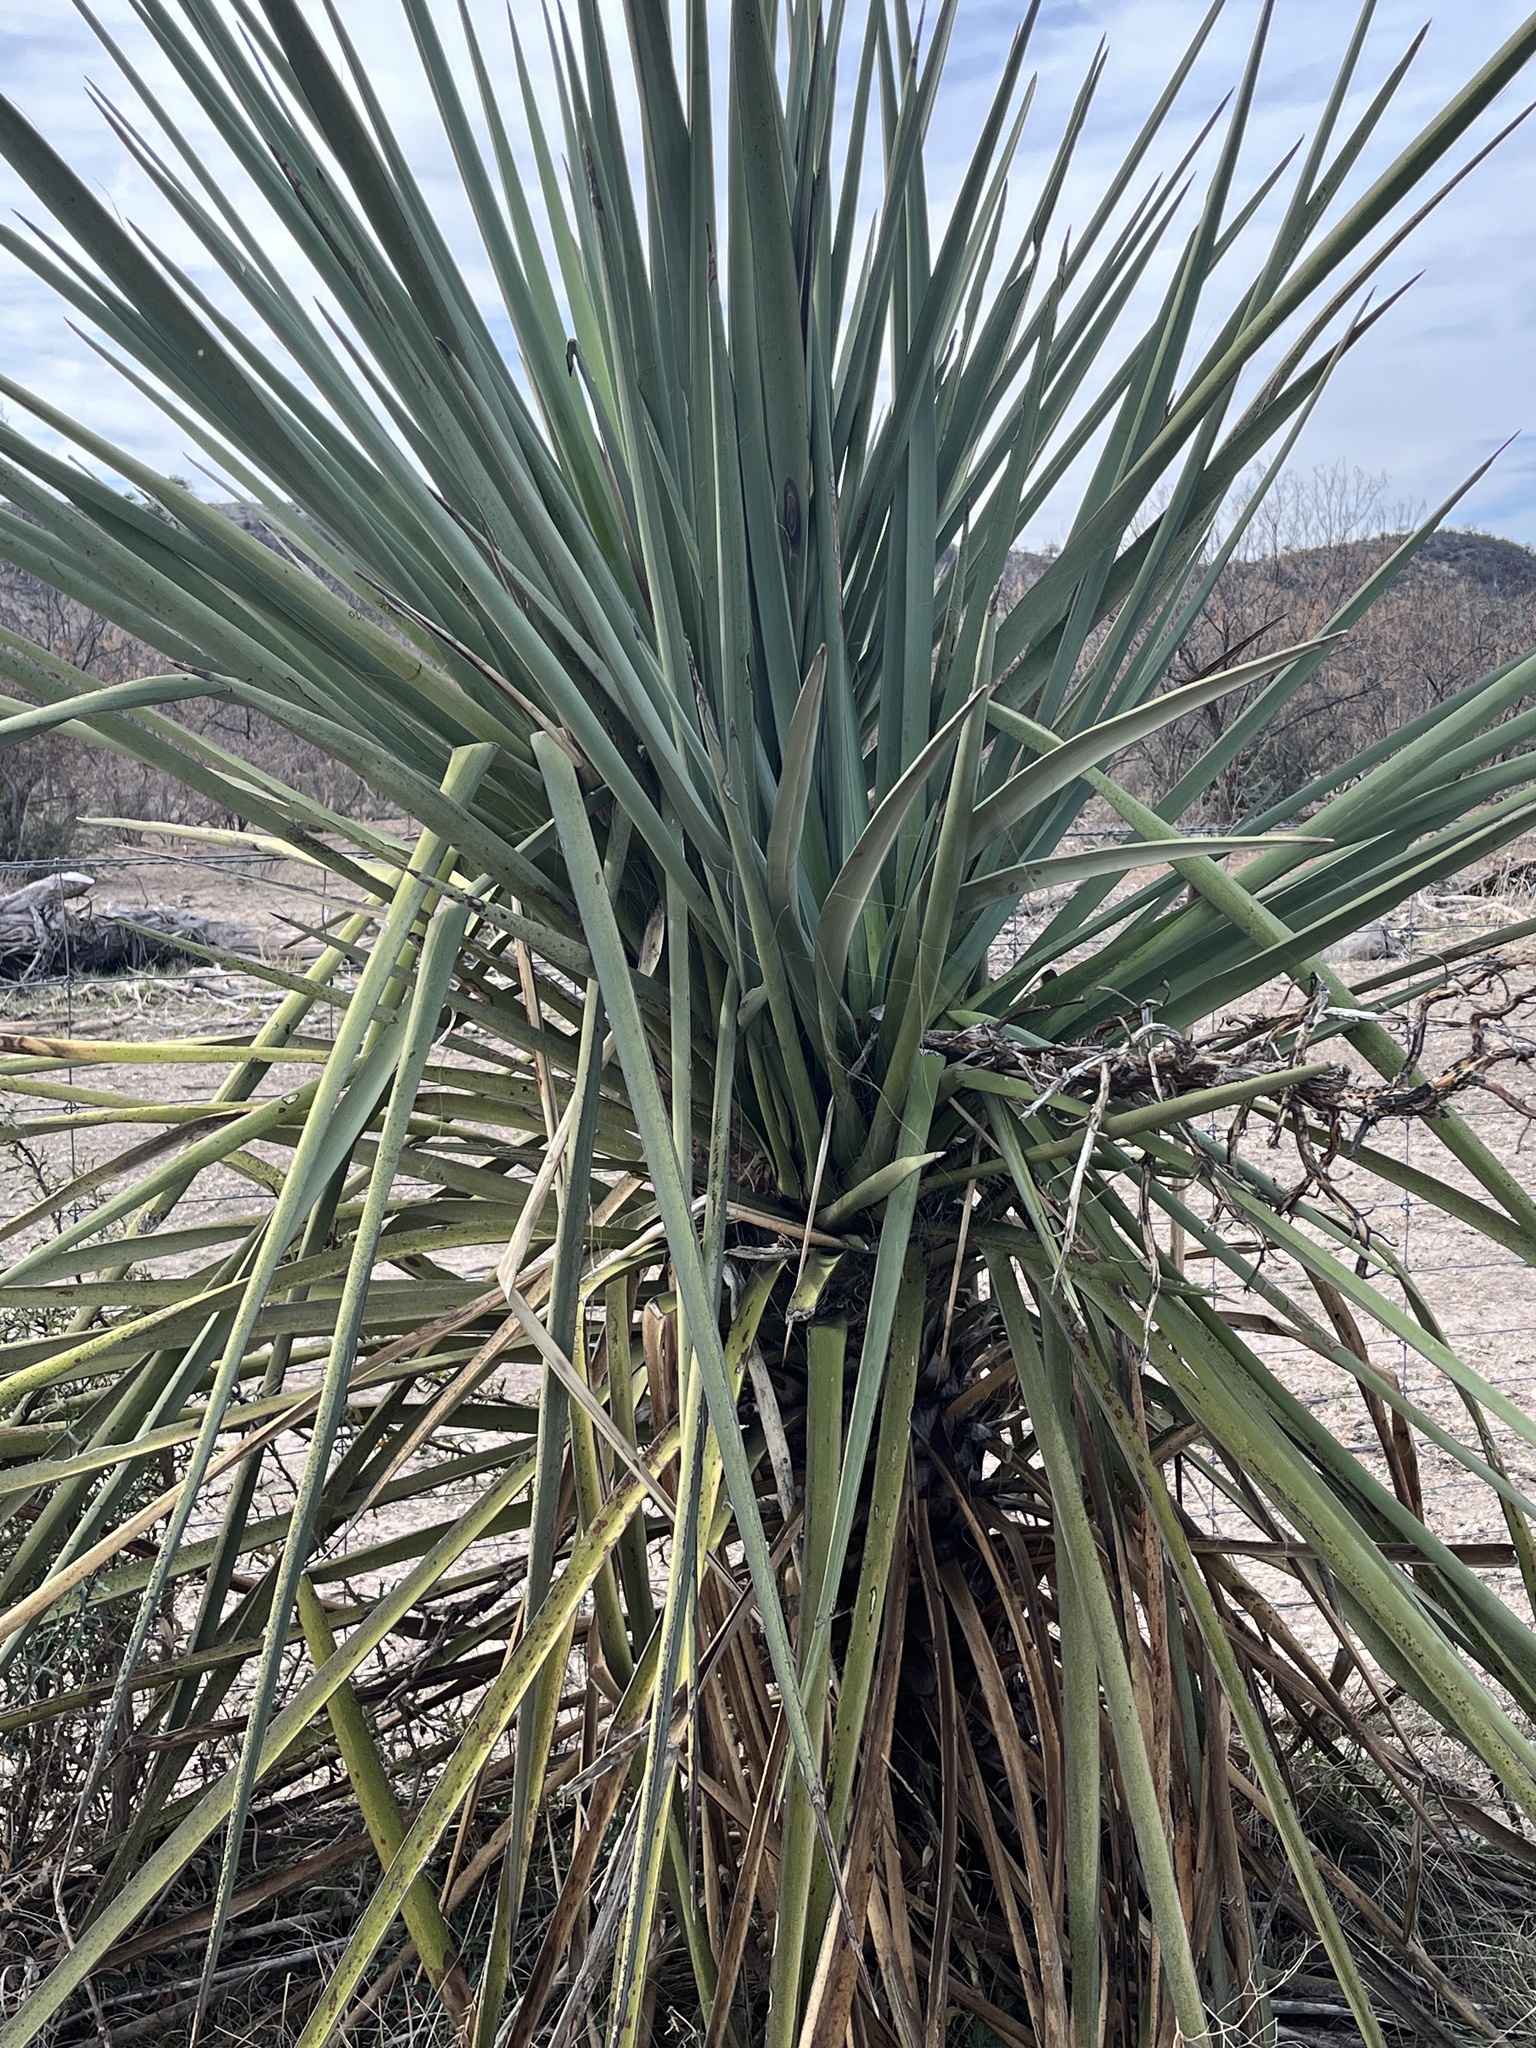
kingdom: Plantae
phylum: Tracheophyta
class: Liliopsida
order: Asparagales
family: Asparagaceae
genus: Yucca
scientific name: Yucca treculiana
